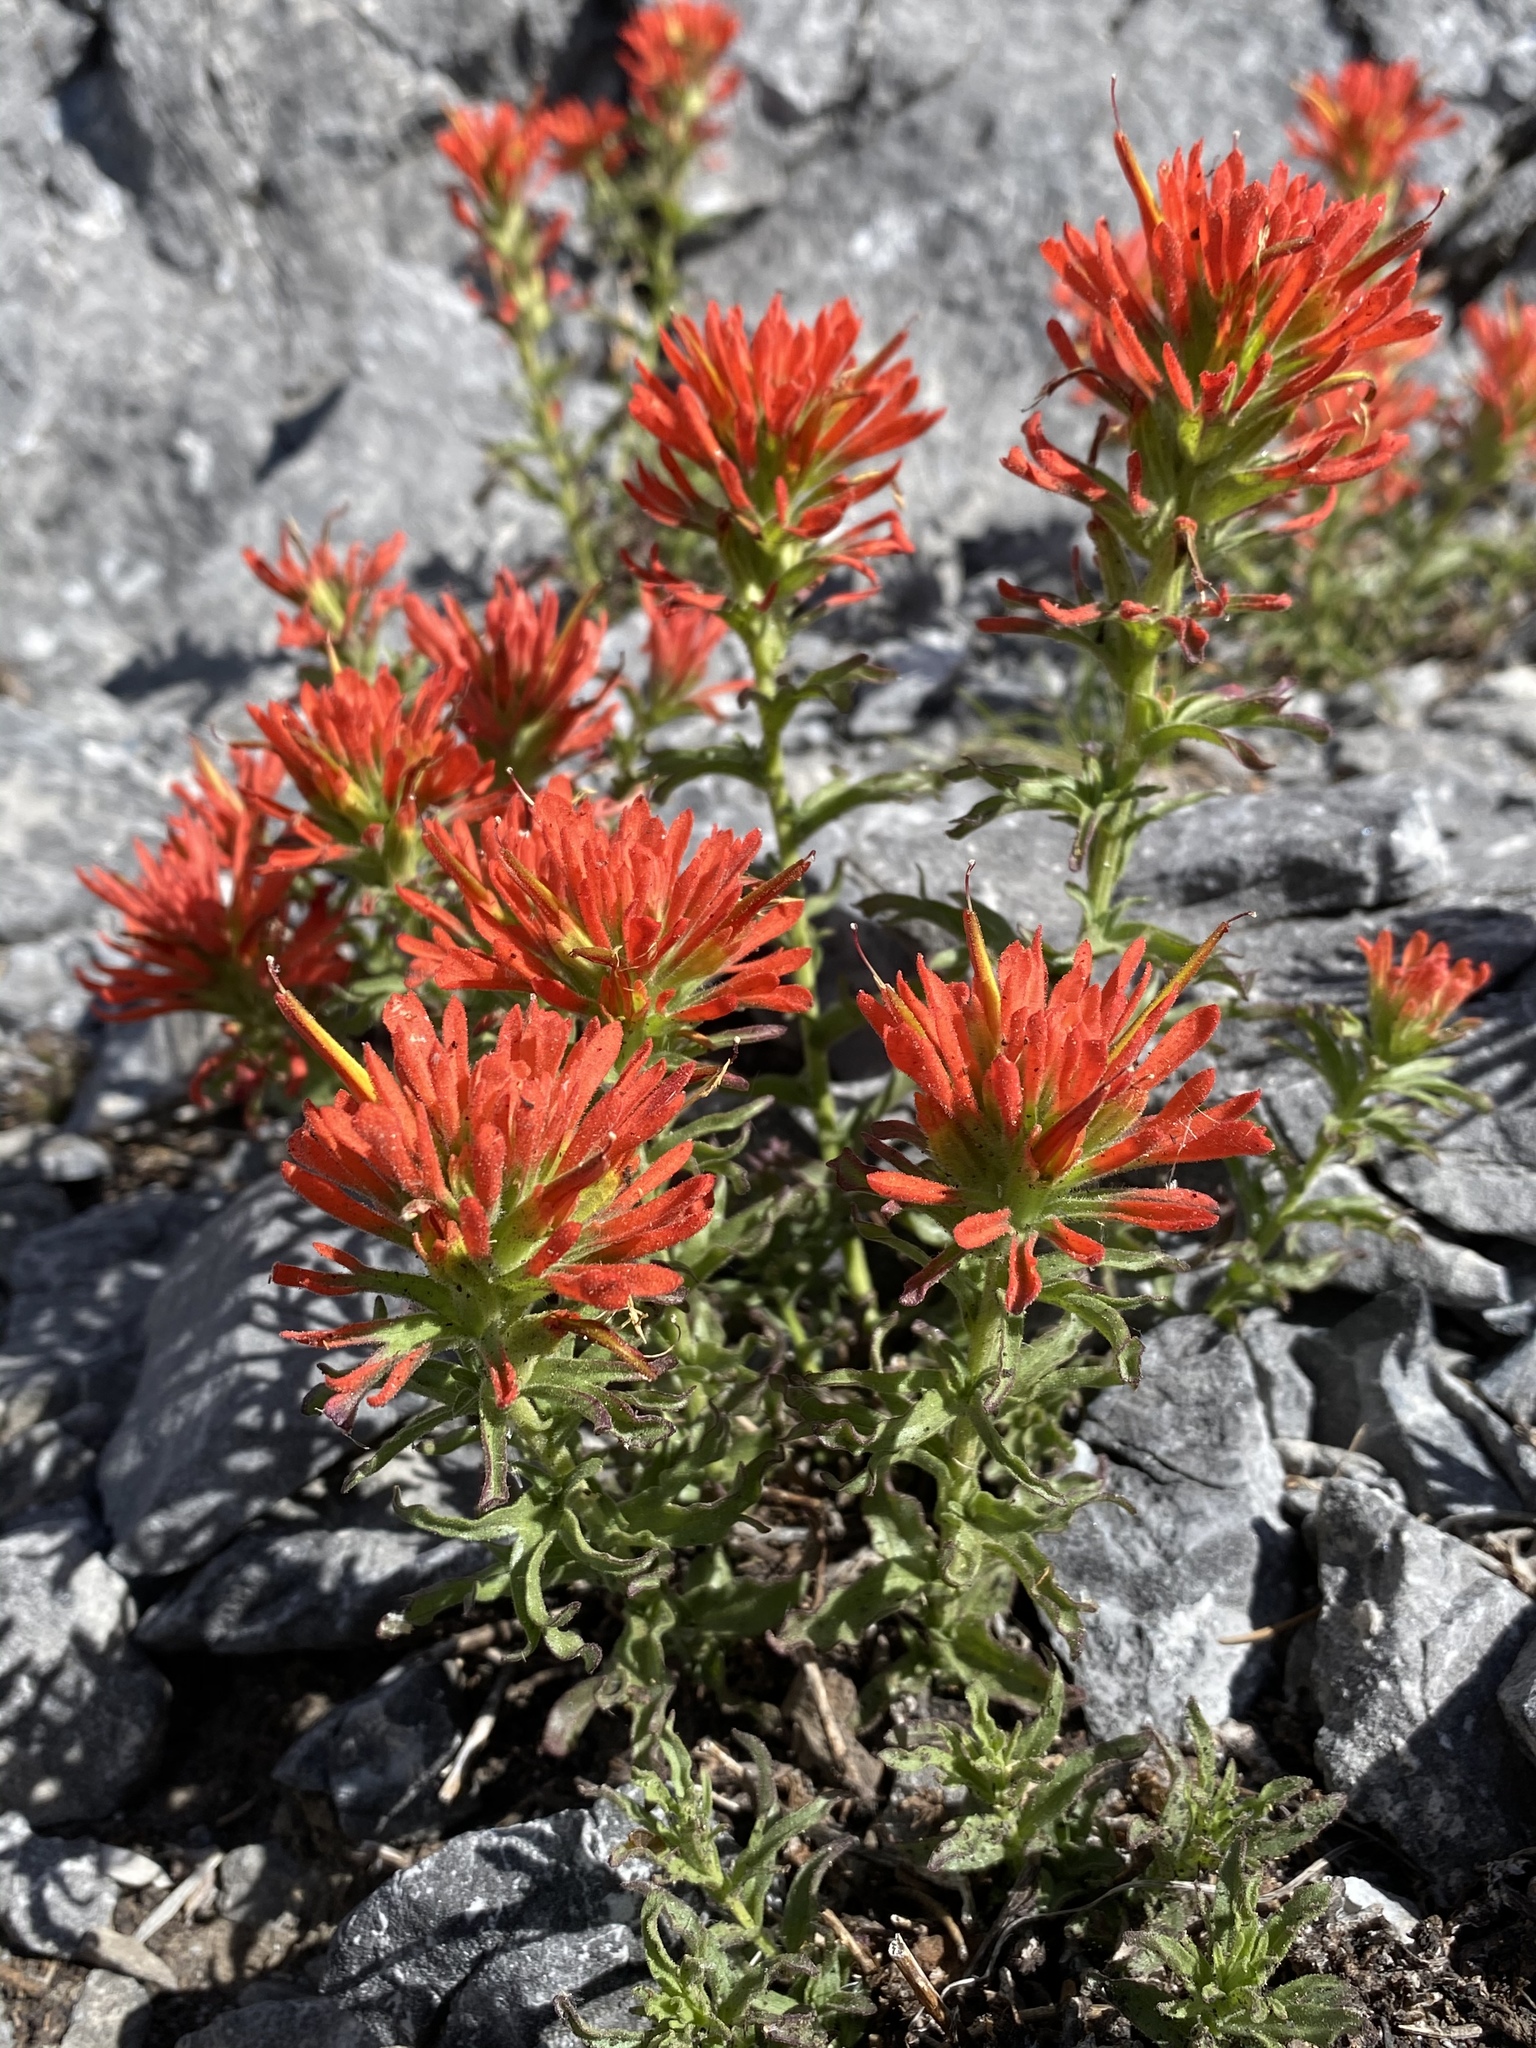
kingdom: Plantae
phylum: Tracheophyta
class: Magnoliopsida
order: Lamiales
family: Orobanchaceae
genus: Castilleja
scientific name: Castilleja martini
